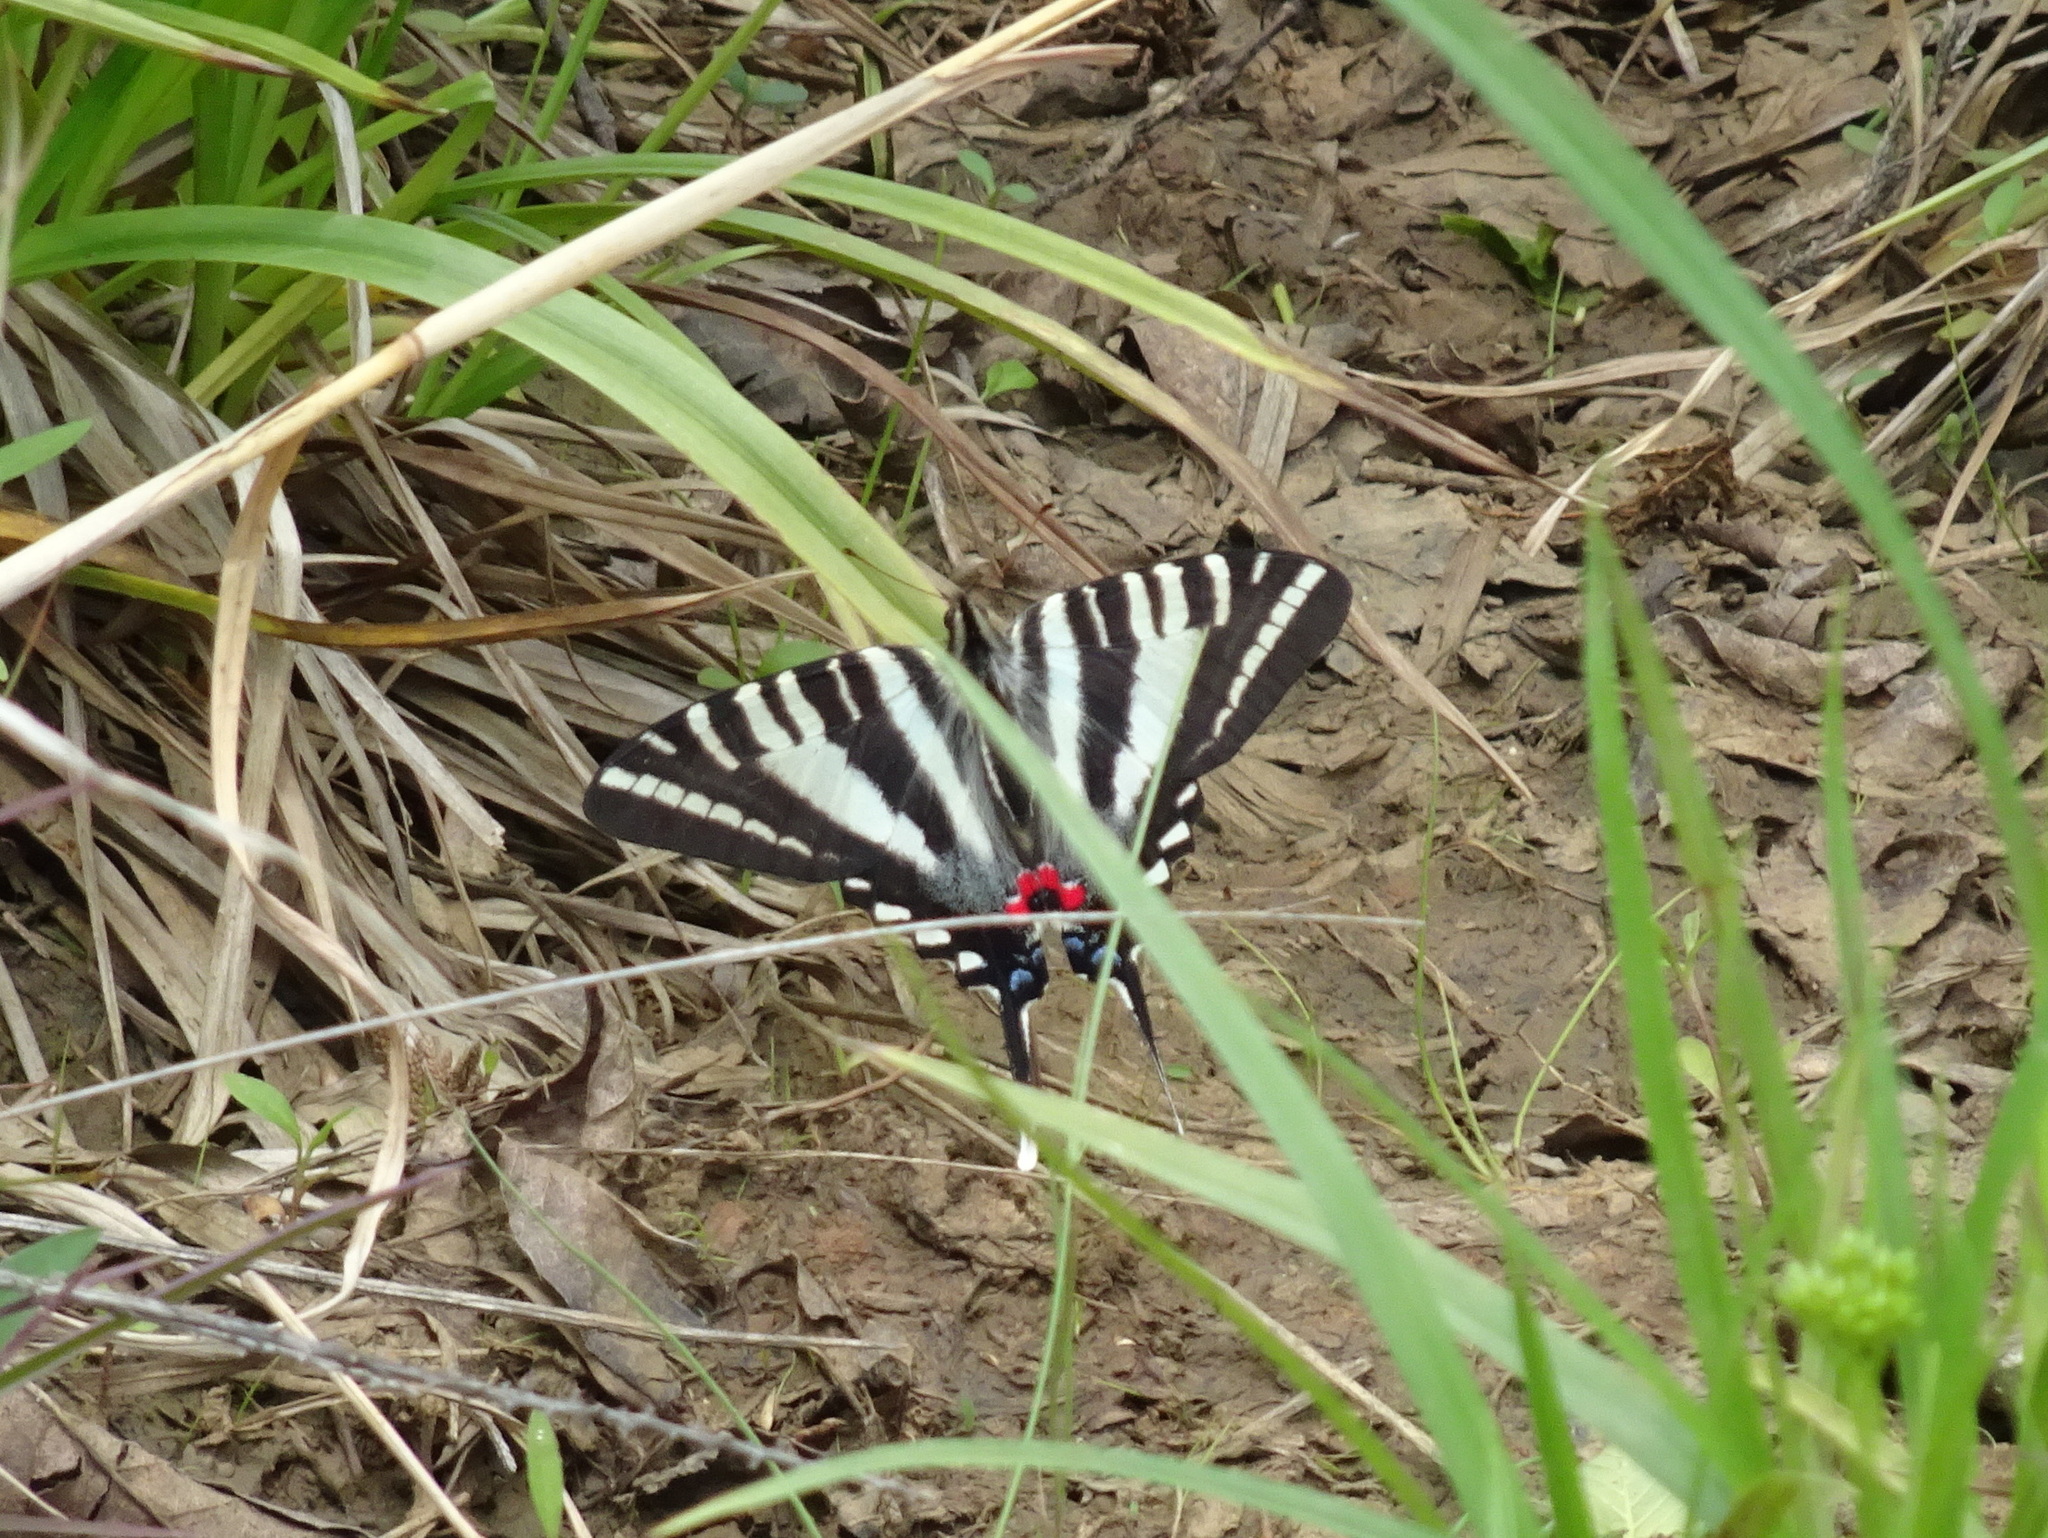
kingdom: Animalia
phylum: Arthropoda
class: Insecta
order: Lepidoptera
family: Papilionidae
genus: Protographium
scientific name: Protographium marcellus
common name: Zebra swallowtail
